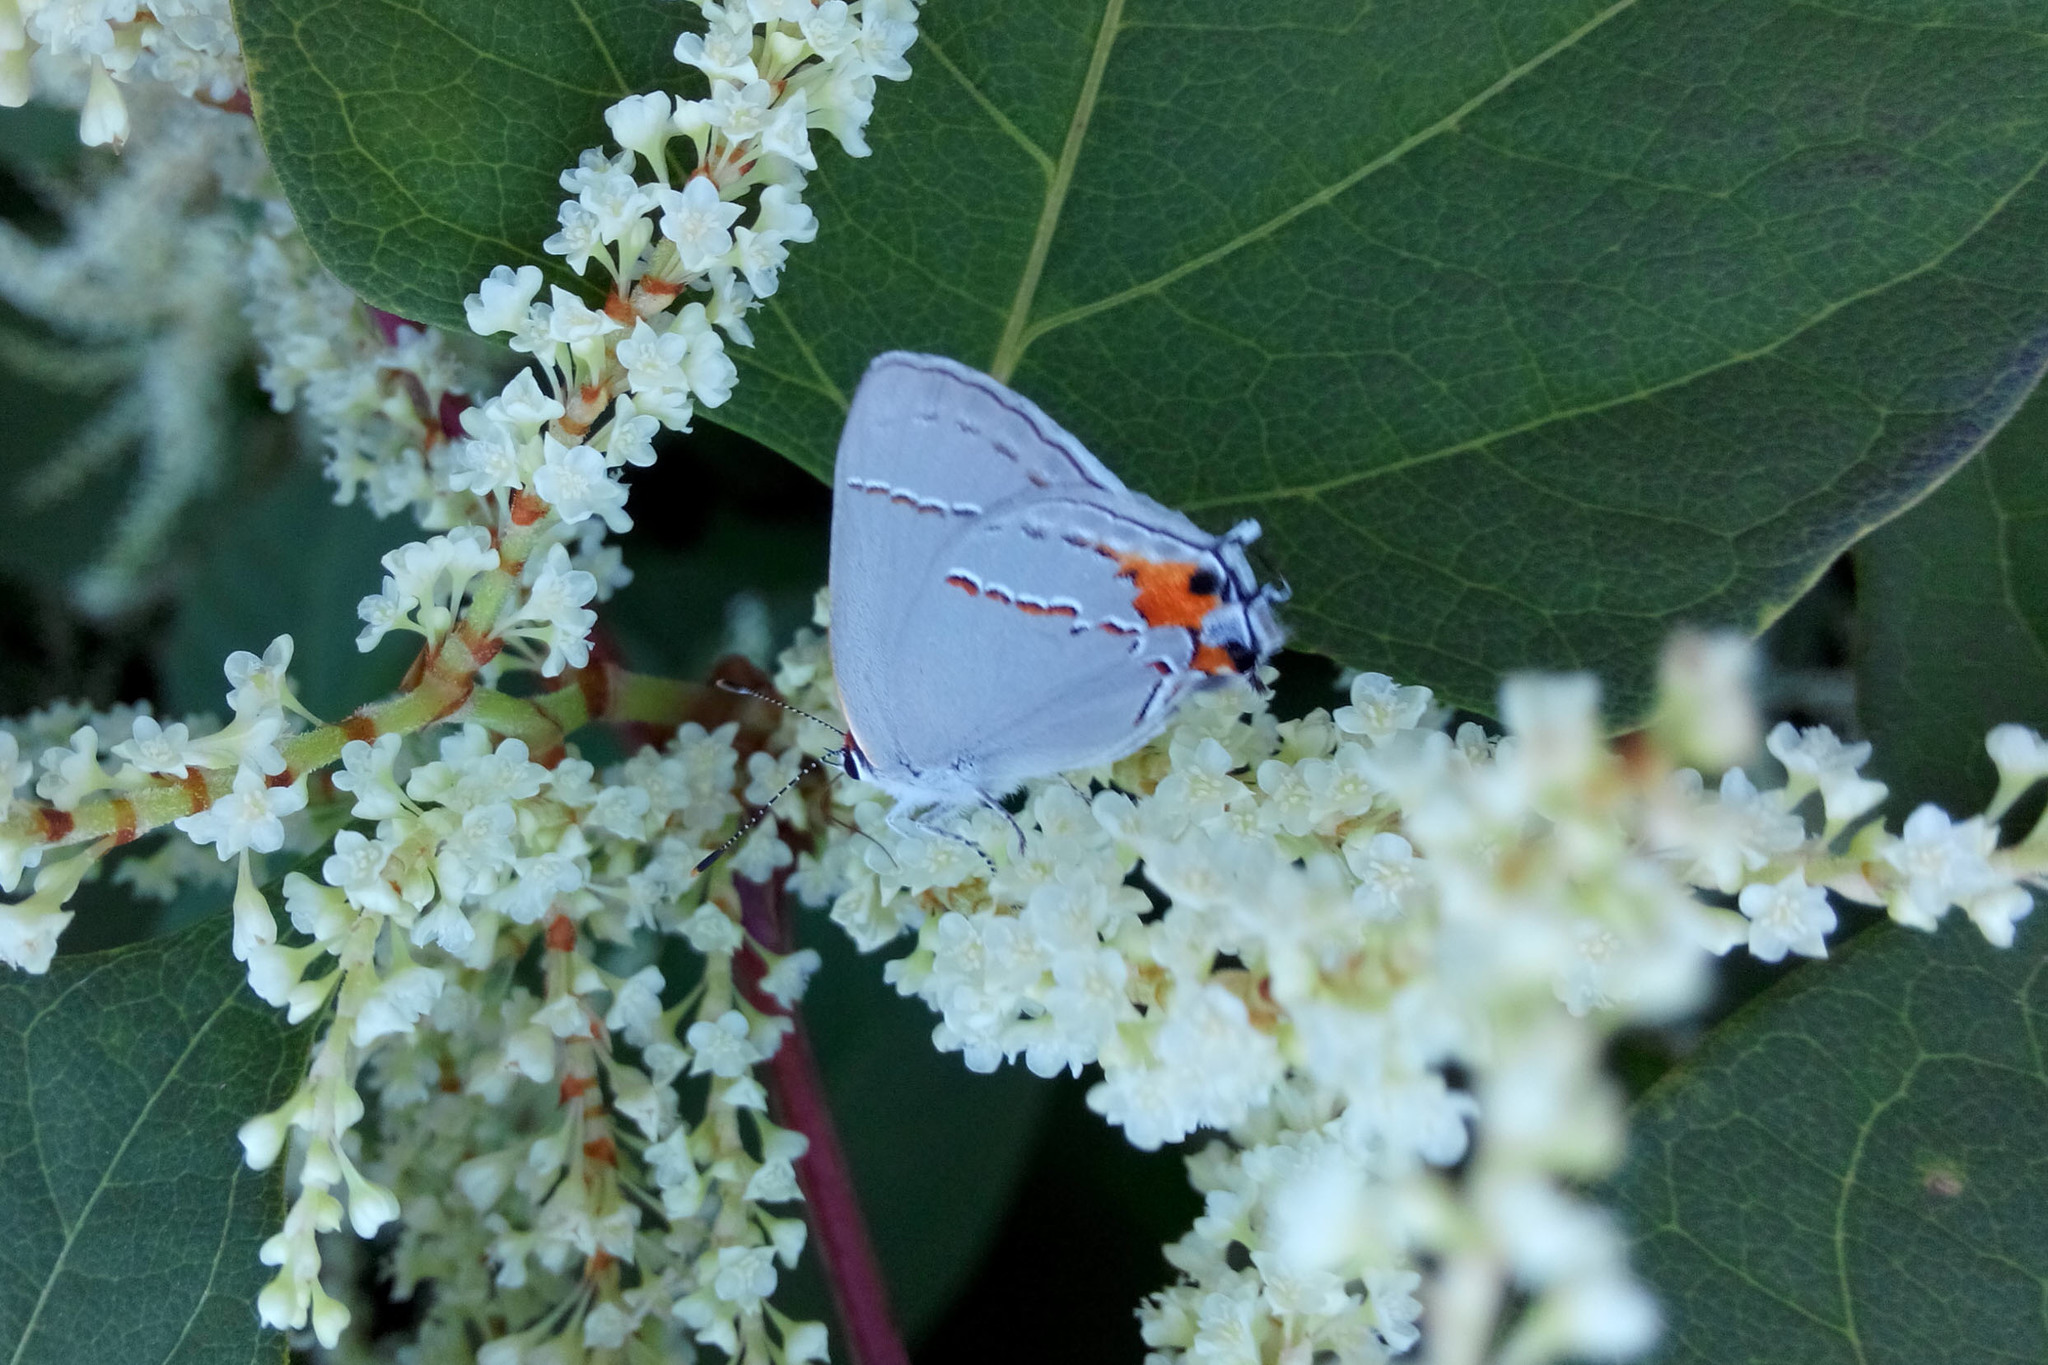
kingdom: Animalia
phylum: Arthropoda
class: Insecta
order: Lepidoptera
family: Lycaenidae
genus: Strymon
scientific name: Strymon melinus
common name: Gray hairstreak
